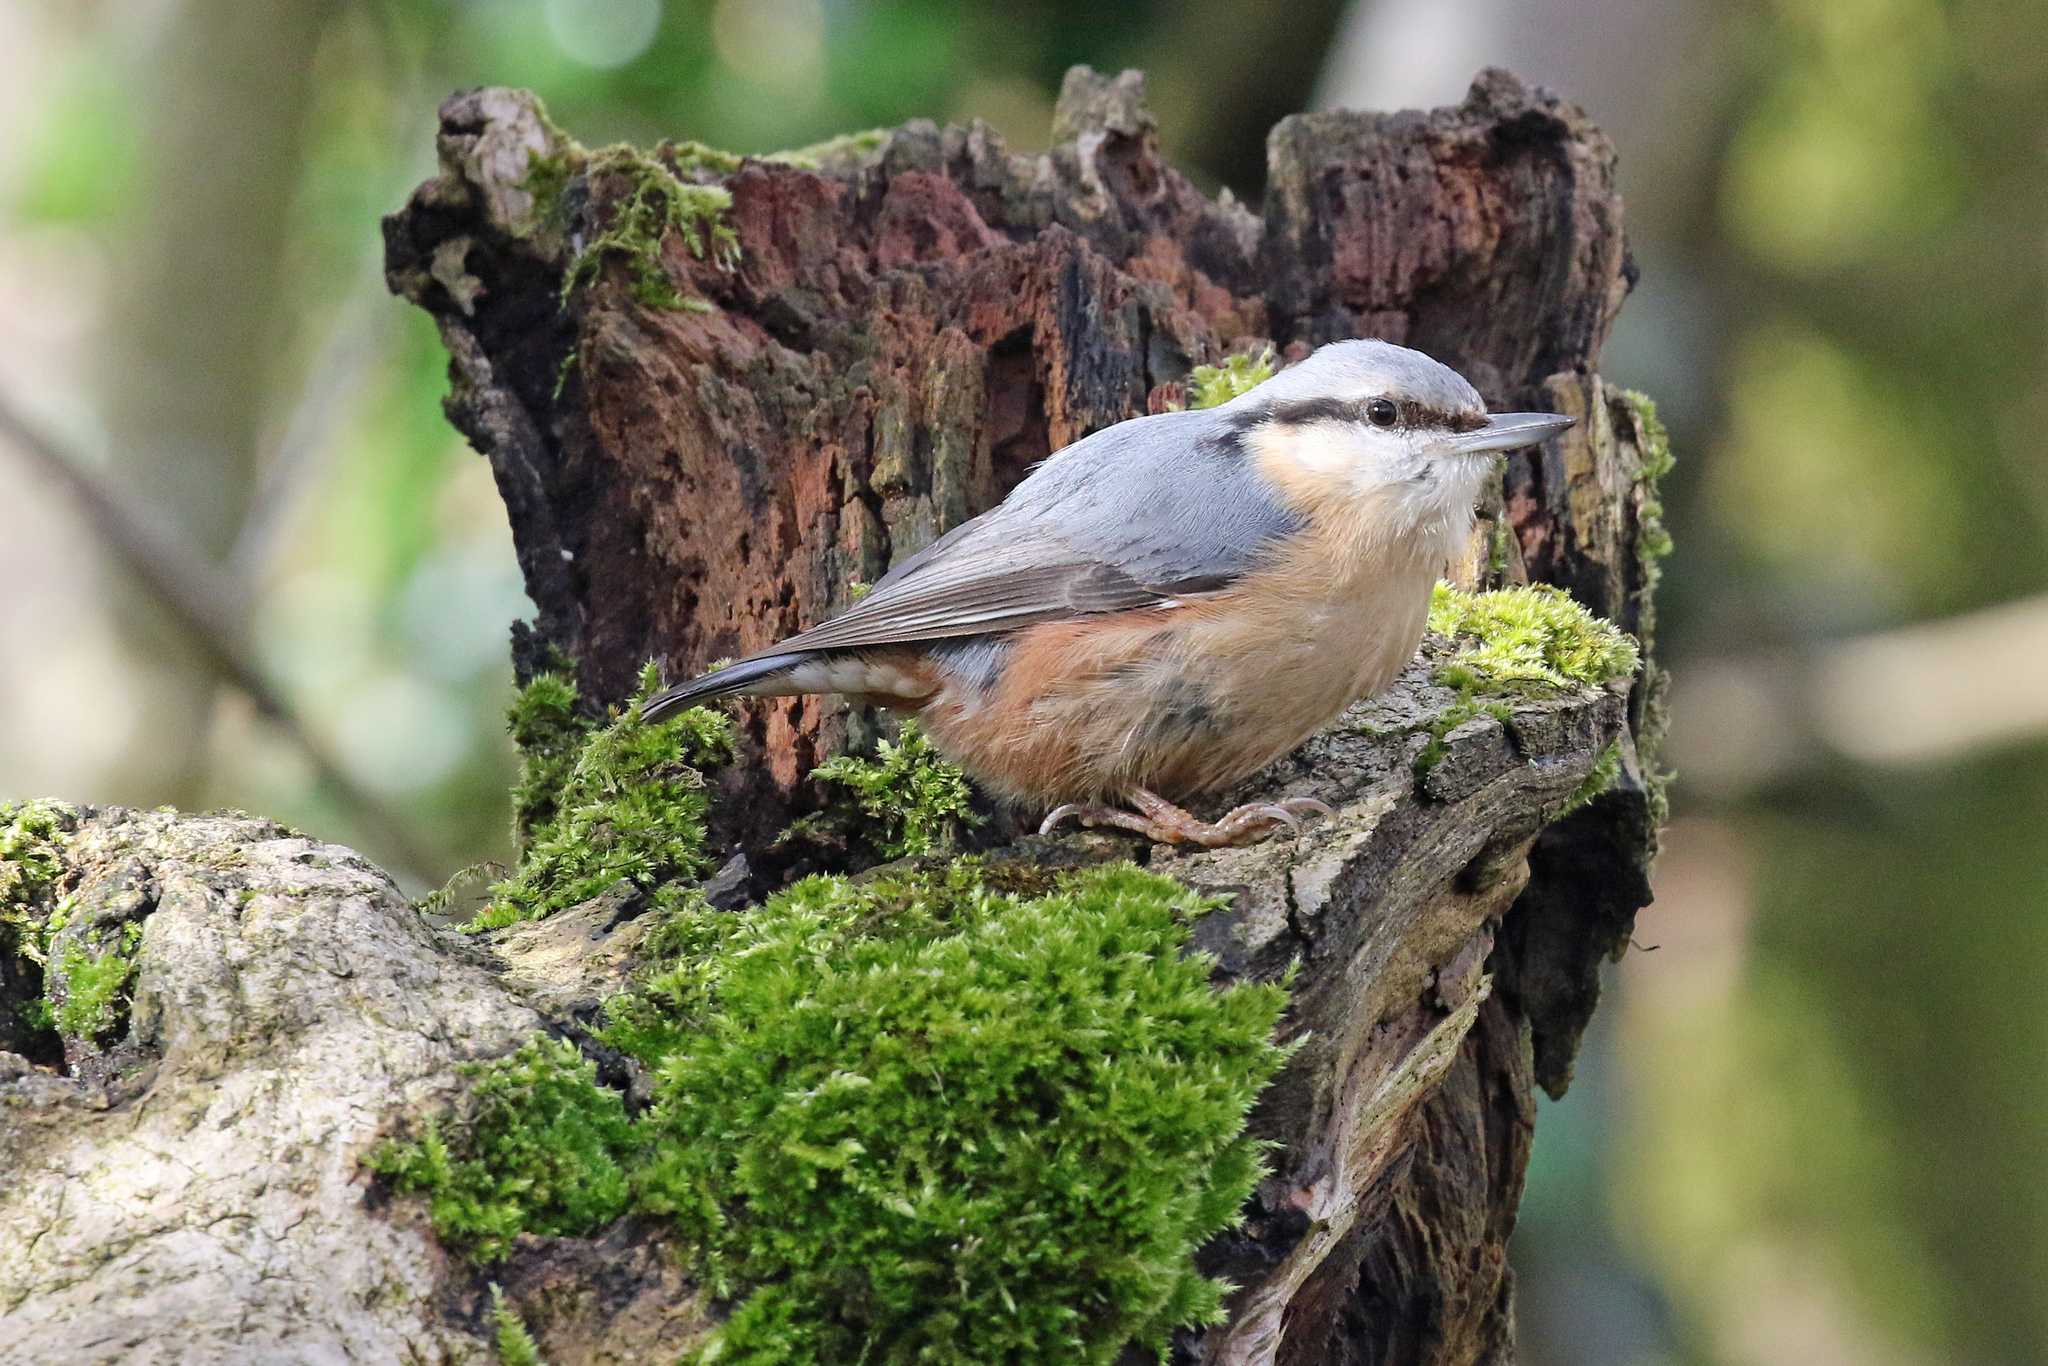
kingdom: Animalia
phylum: Chordata
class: Aves
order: Passeriformes
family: Sittidae
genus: Sitta
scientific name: Sitta europaea
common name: Eurasian nuthatch
